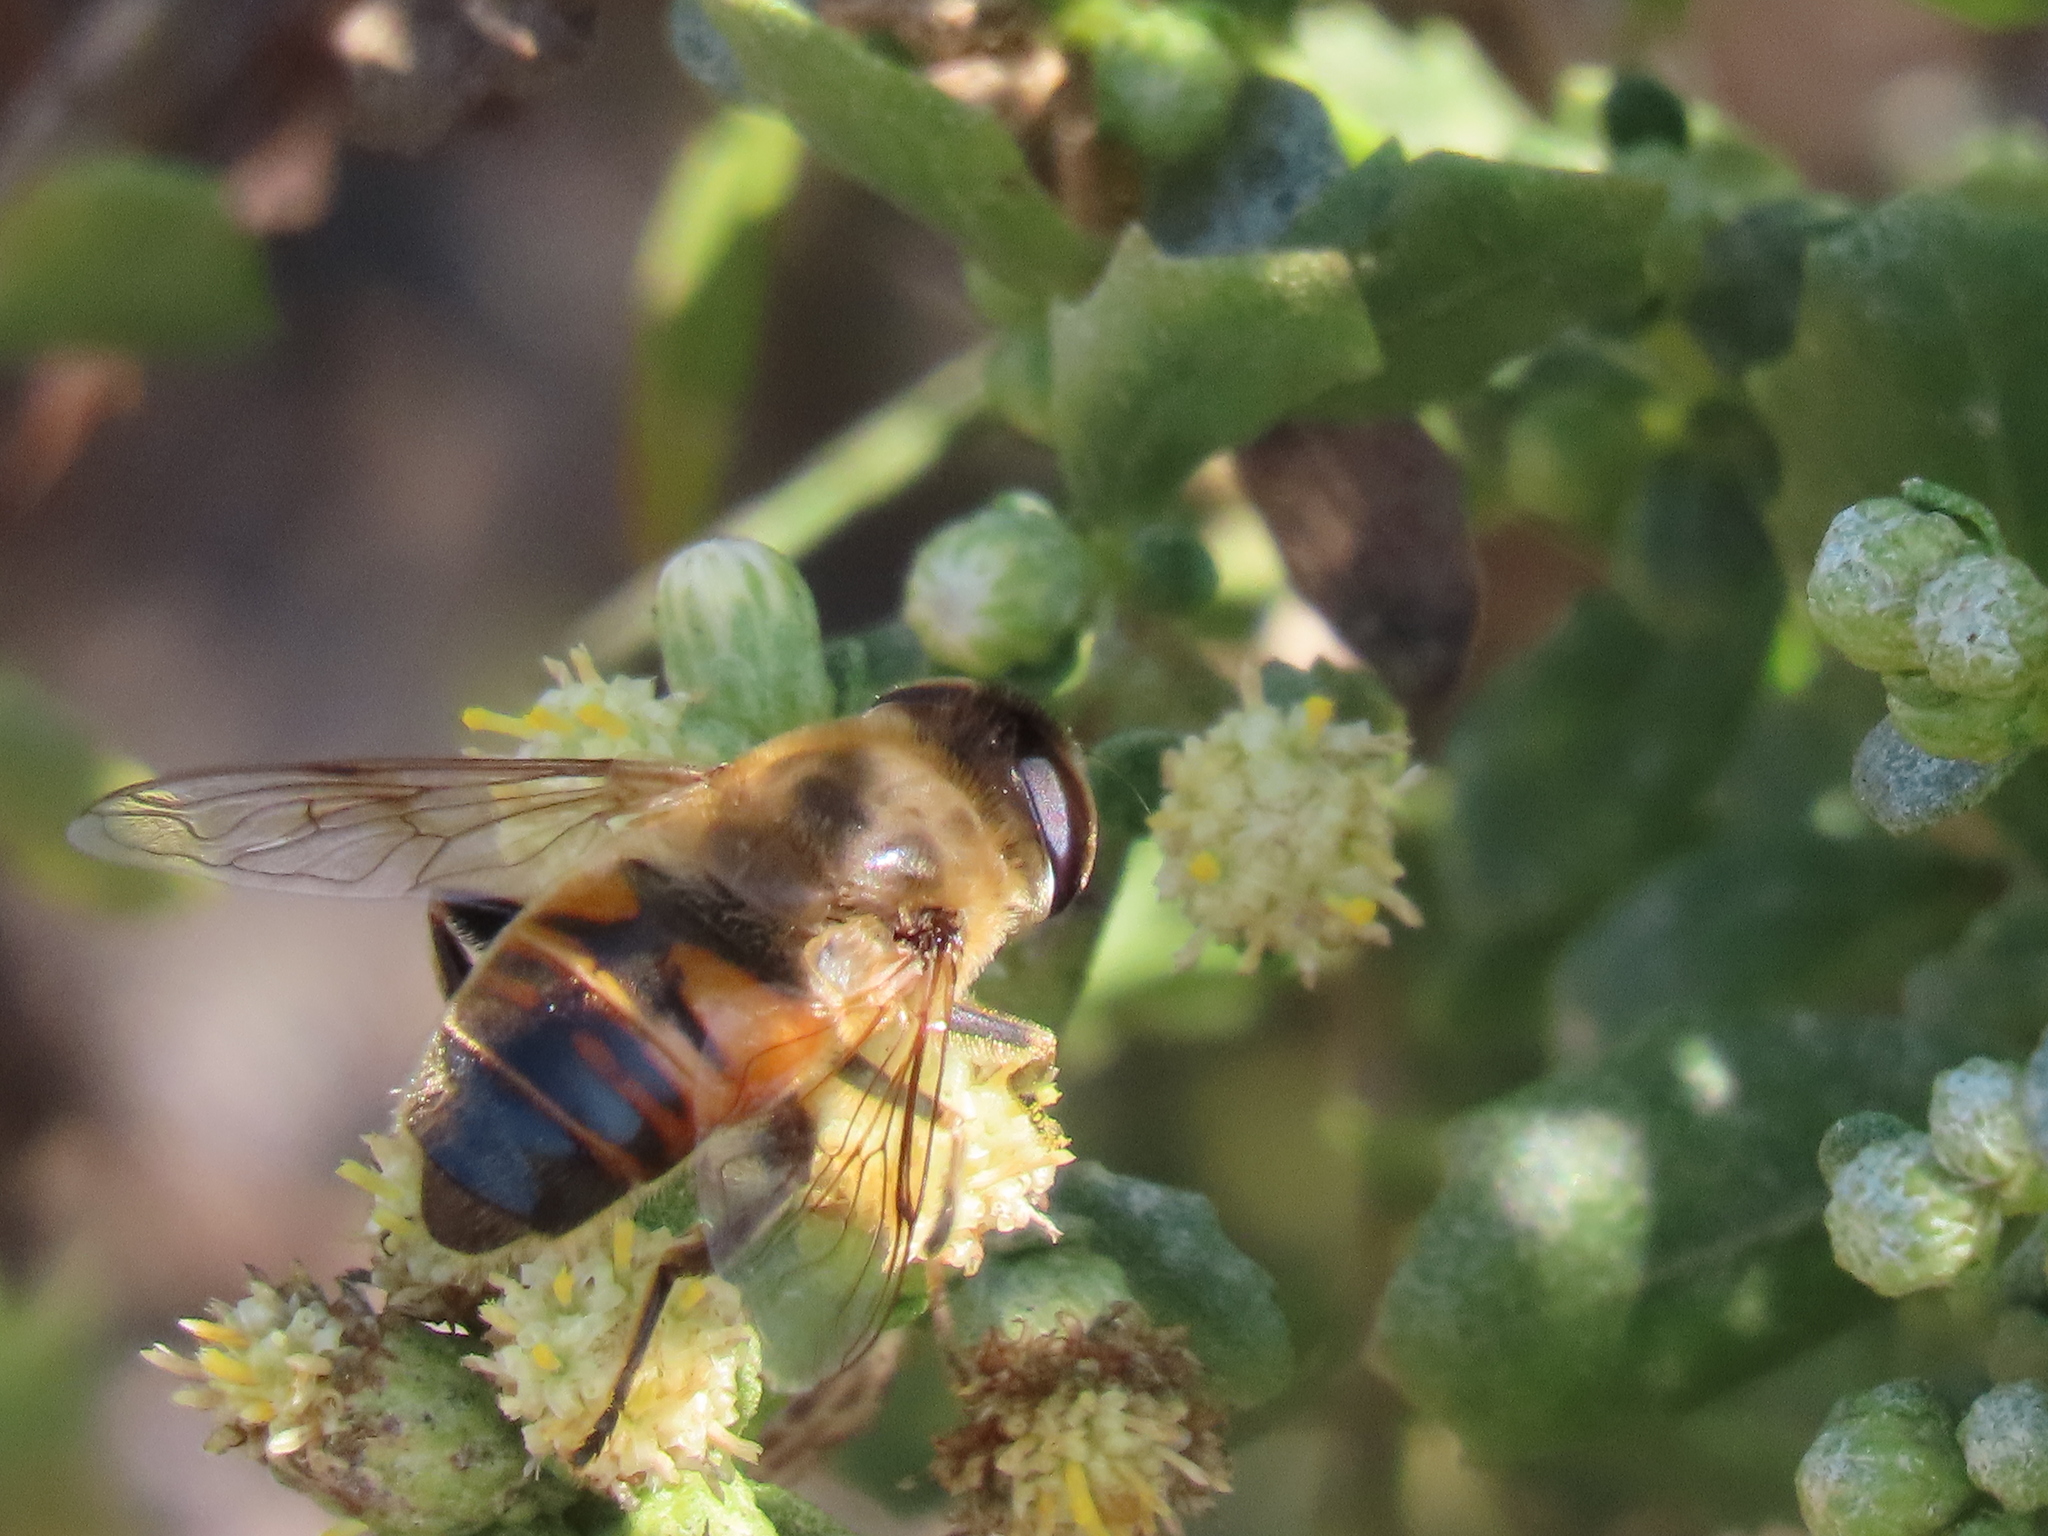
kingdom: Animalia
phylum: Arthropoda
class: Insecta
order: Diptera
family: Syrphidae
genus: Eristalis
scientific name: Eristalis tenax
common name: Drone fly
